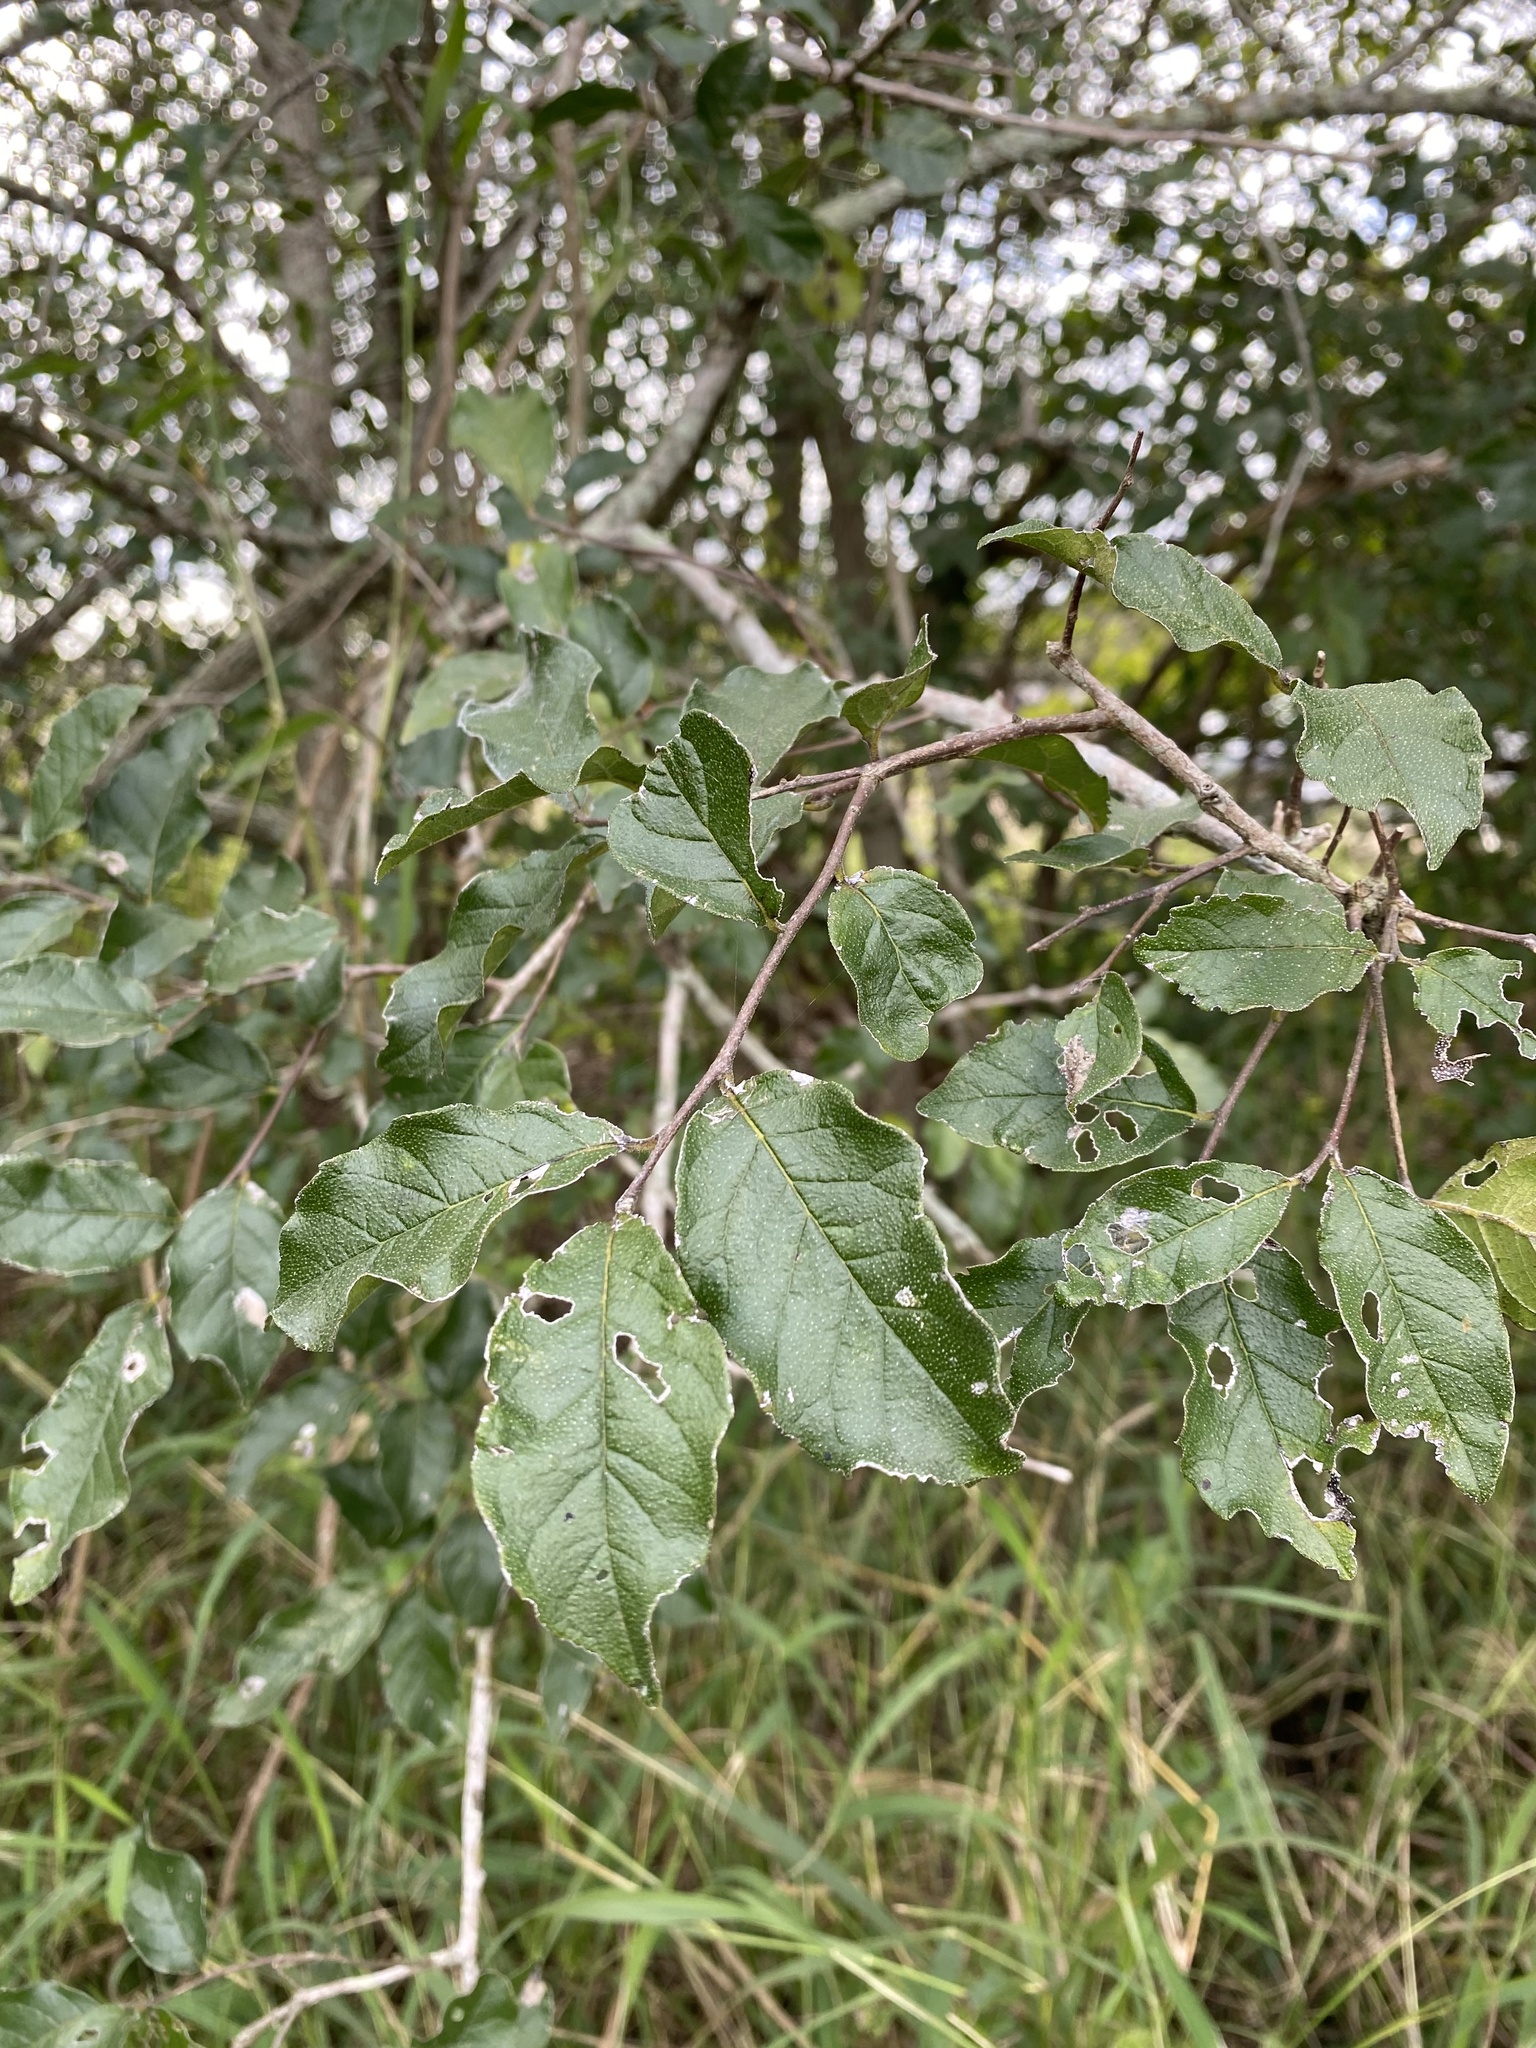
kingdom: Plantae
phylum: Tracheophyta
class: Magnoliopsida
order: Boraginales
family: Ehretiaceae
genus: Ehretia
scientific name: Ehretia anacua
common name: Sugarberry
